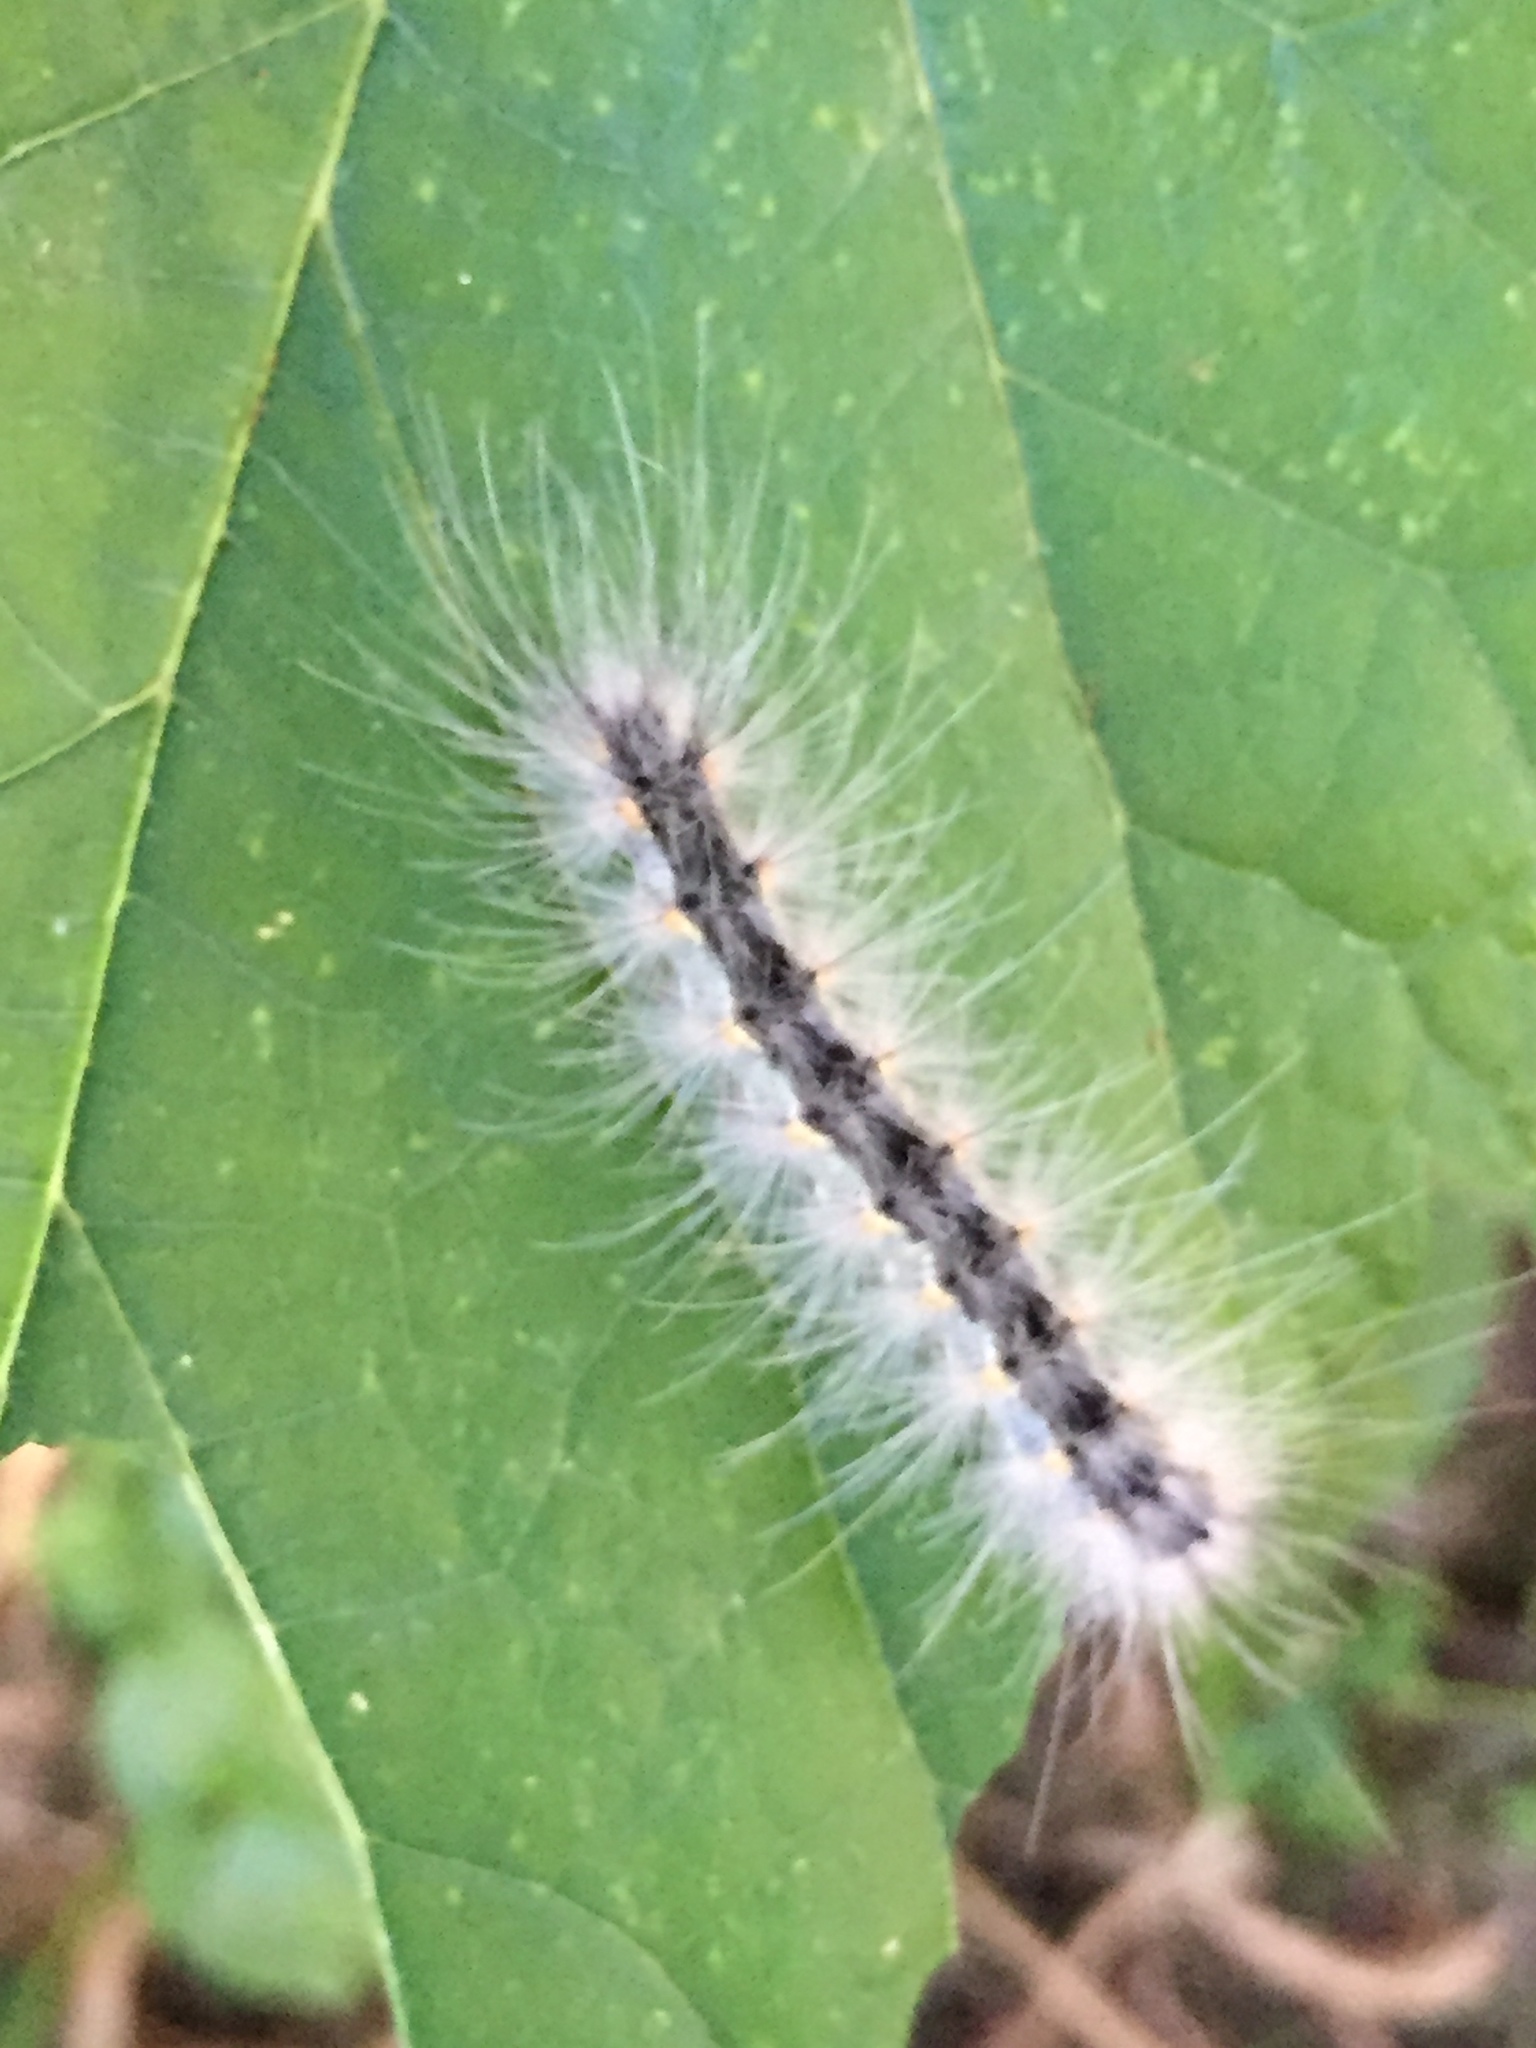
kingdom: Animalia
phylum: Arthropoda
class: Insecta
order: Lepidoptera
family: Erebidae
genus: Hyphantria
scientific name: Hyphantria cunea
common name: American white moth
